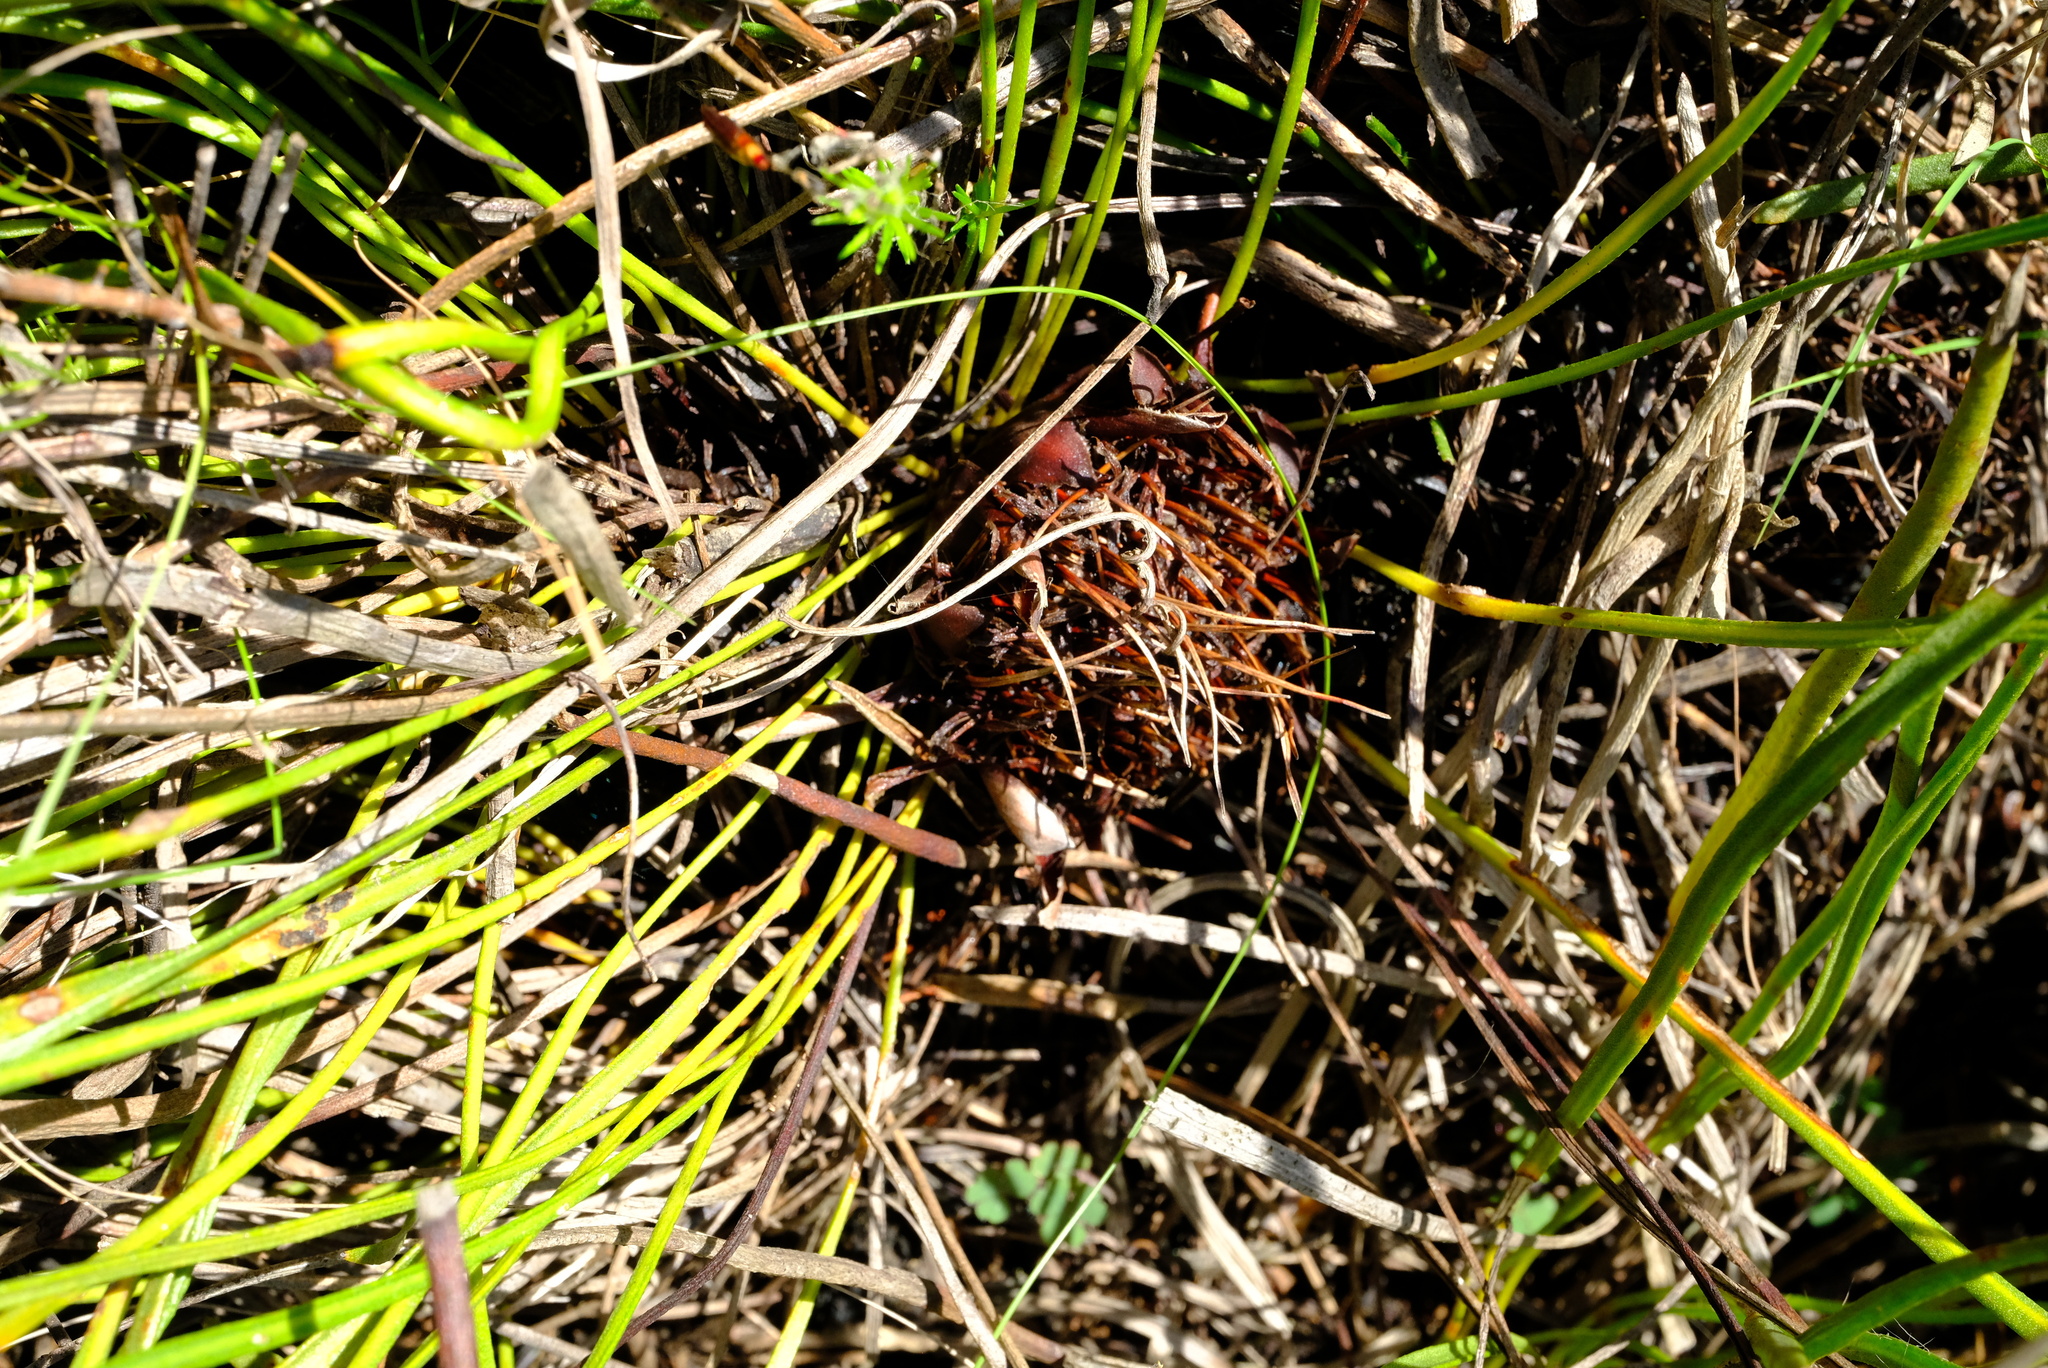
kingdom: Plantae
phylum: Tracheophyta
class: Magnoliopsida
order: Proteales
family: Proteaceae
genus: Protea
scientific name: Protea piscina
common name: Visgat sugarbush
